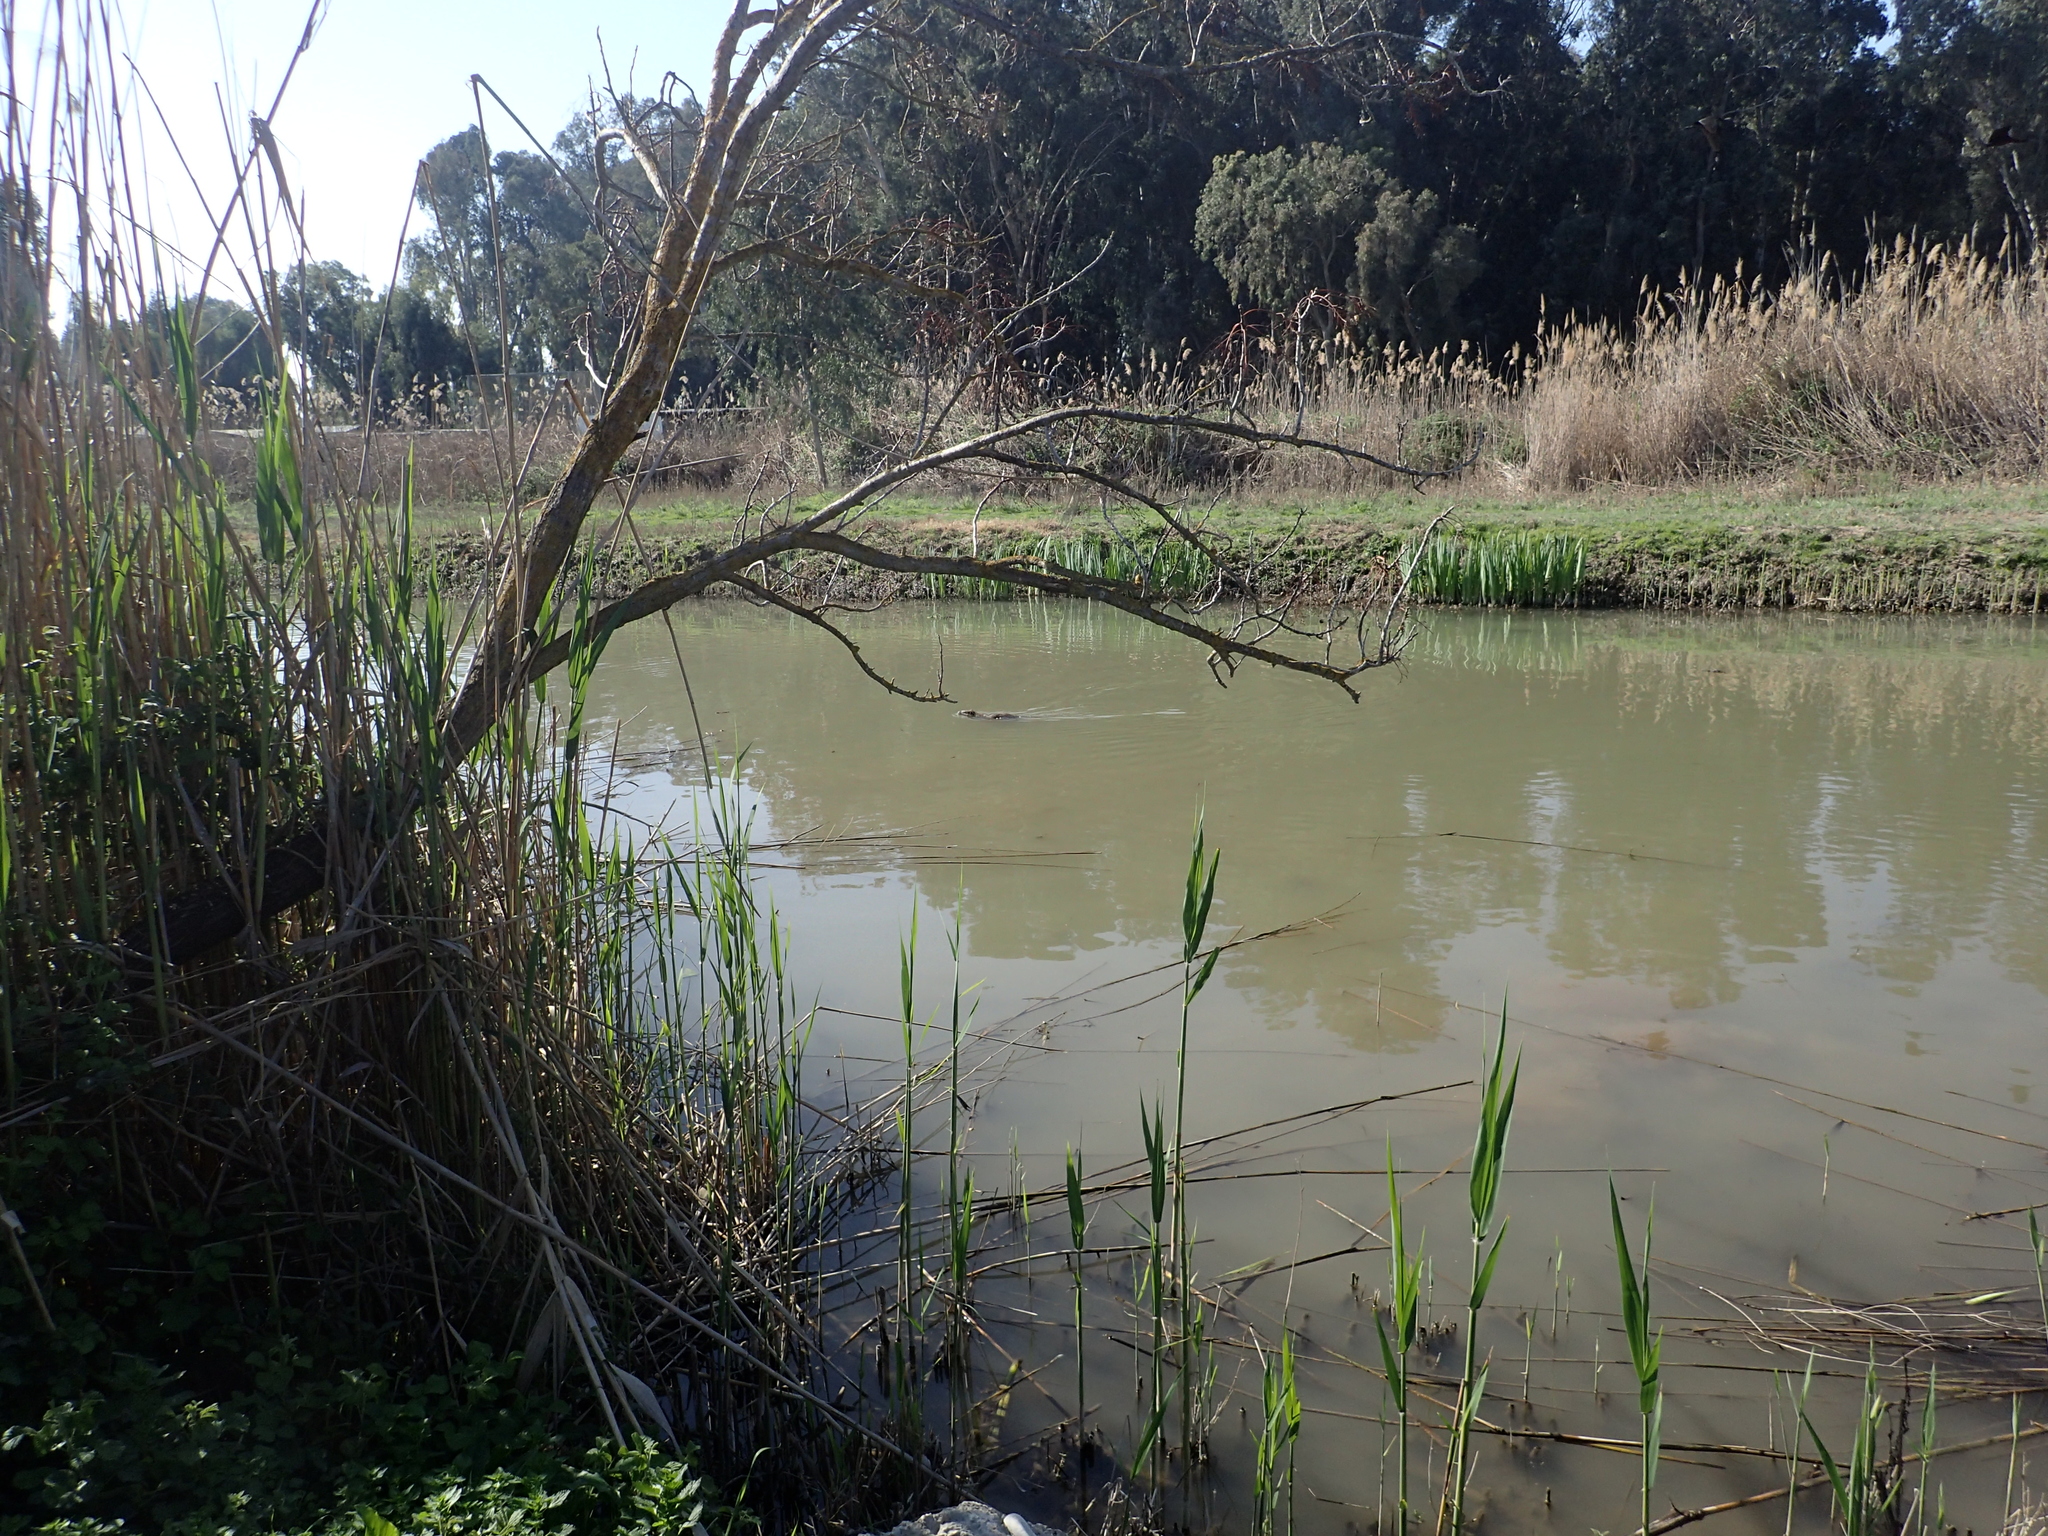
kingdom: Animalia
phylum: Chordata
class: Mammalia
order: Rodentia
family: Myocastoridae
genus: Myocastor
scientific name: Myocastor coypus
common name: Coypu
